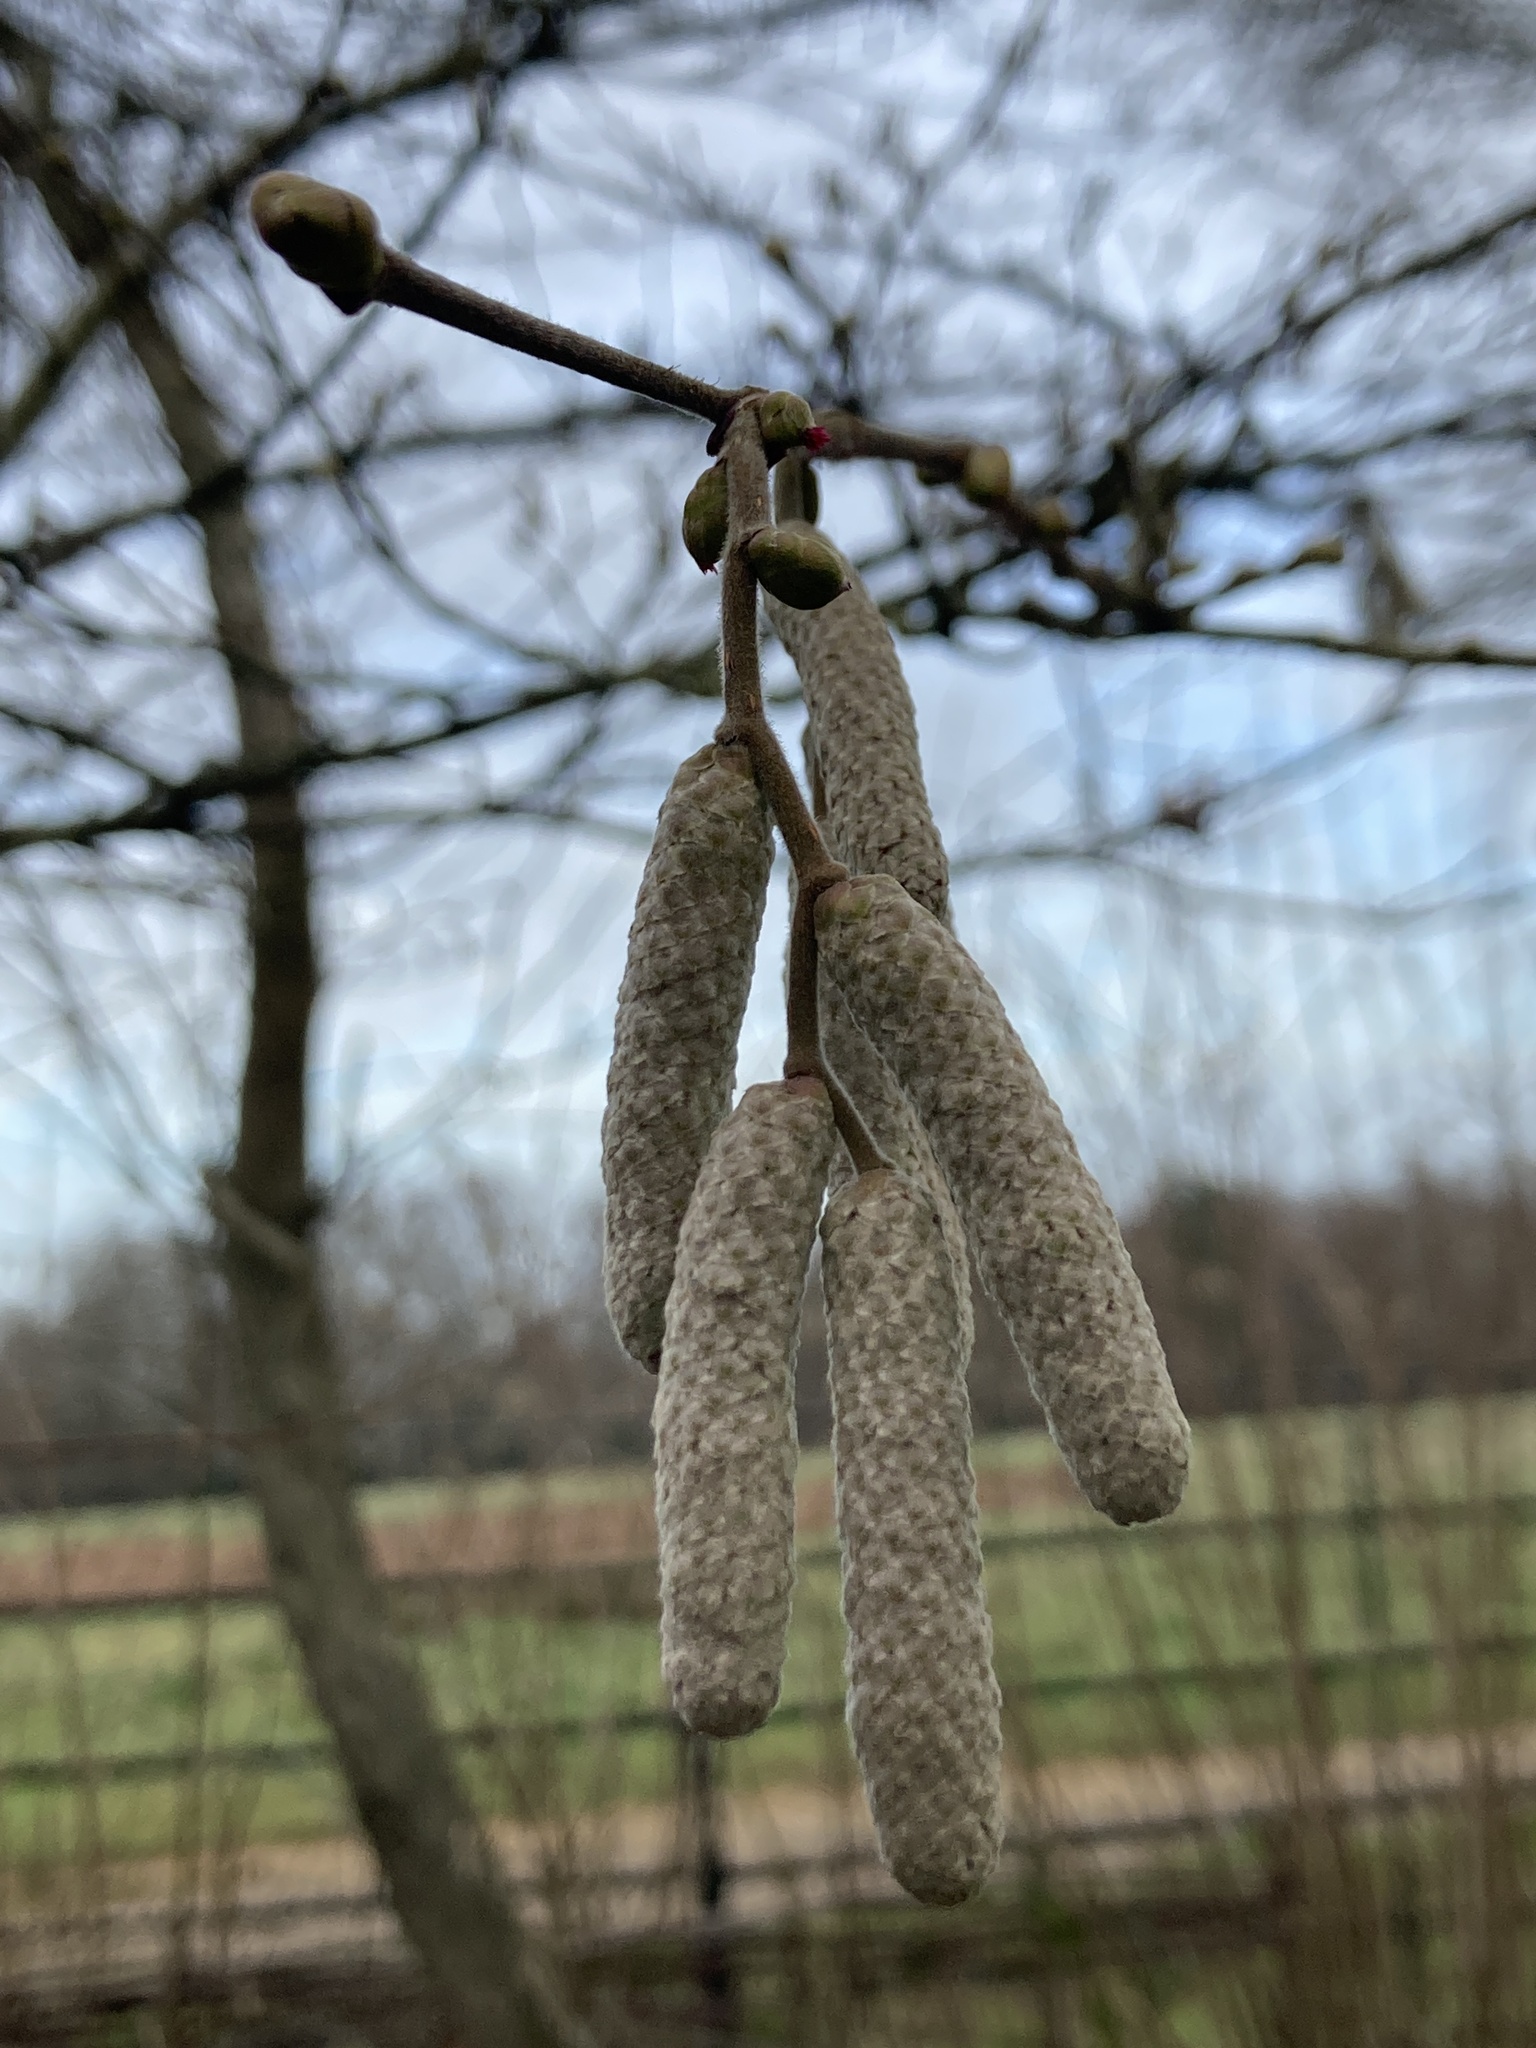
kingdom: Plantae
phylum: Tracheophyta
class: Magnoliopsida
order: Fagales
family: Betulaceae
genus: Corylus
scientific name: Corylus avellana
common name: European hazel
